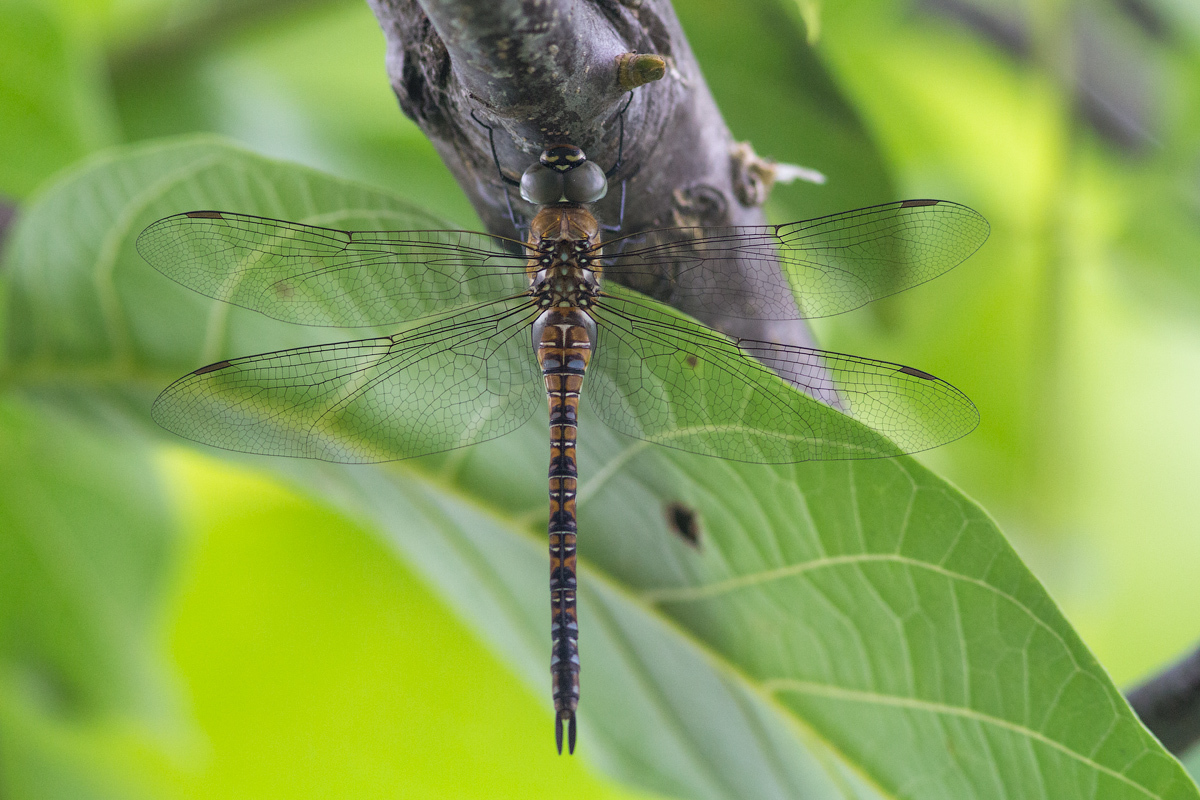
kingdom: Animalia
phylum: Arthropoda
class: Insecta
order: Odonata
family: Aeshnidae
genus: Aeshna
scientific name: Aeshna mixta
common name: Migrant hawker
